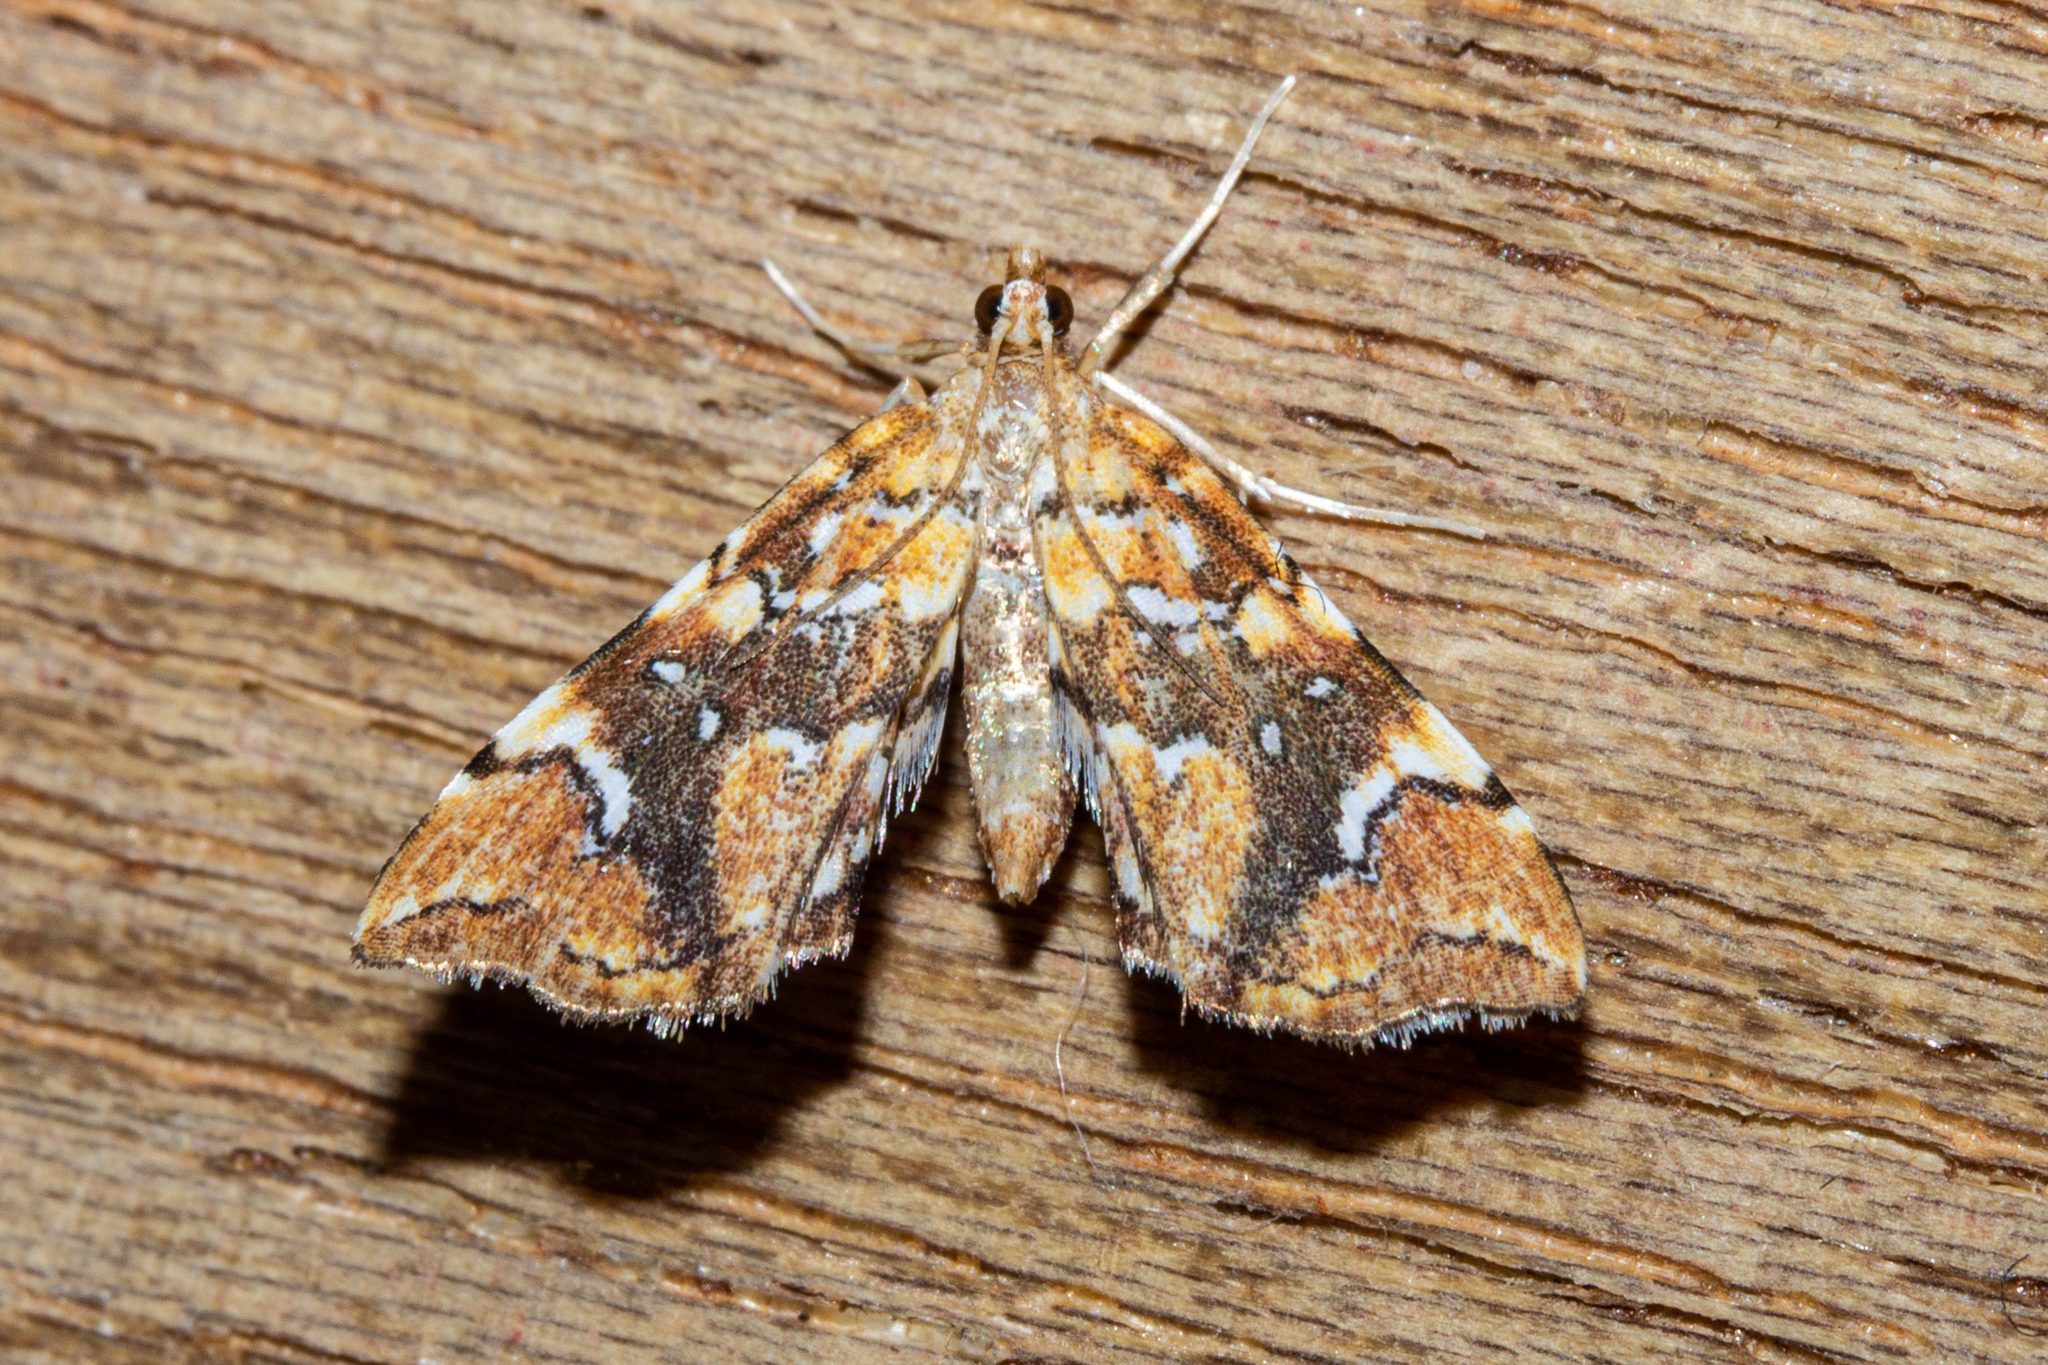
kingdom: Animalia
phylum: Arthropoda
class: Insecta
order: Lepidoptera
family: Pyralidae
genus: Musotima
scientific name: Musotima nitidalis
